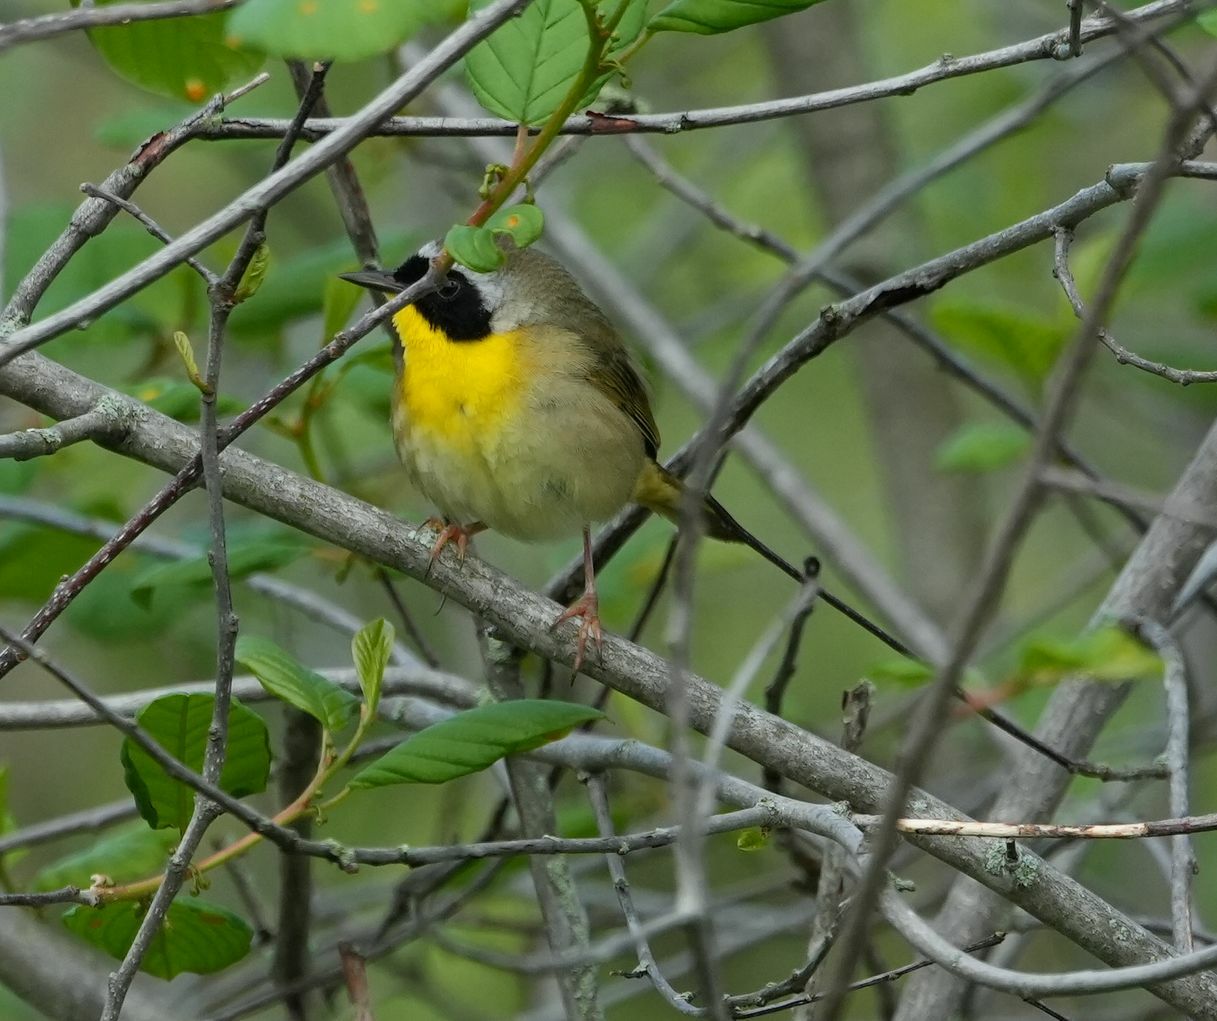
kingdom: Animalia
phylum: Chordata
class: Aves
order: Passeriformes
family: Parulidae
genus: Geothlypis
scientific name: Geothlypis trichas
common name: Common yellowthroat
